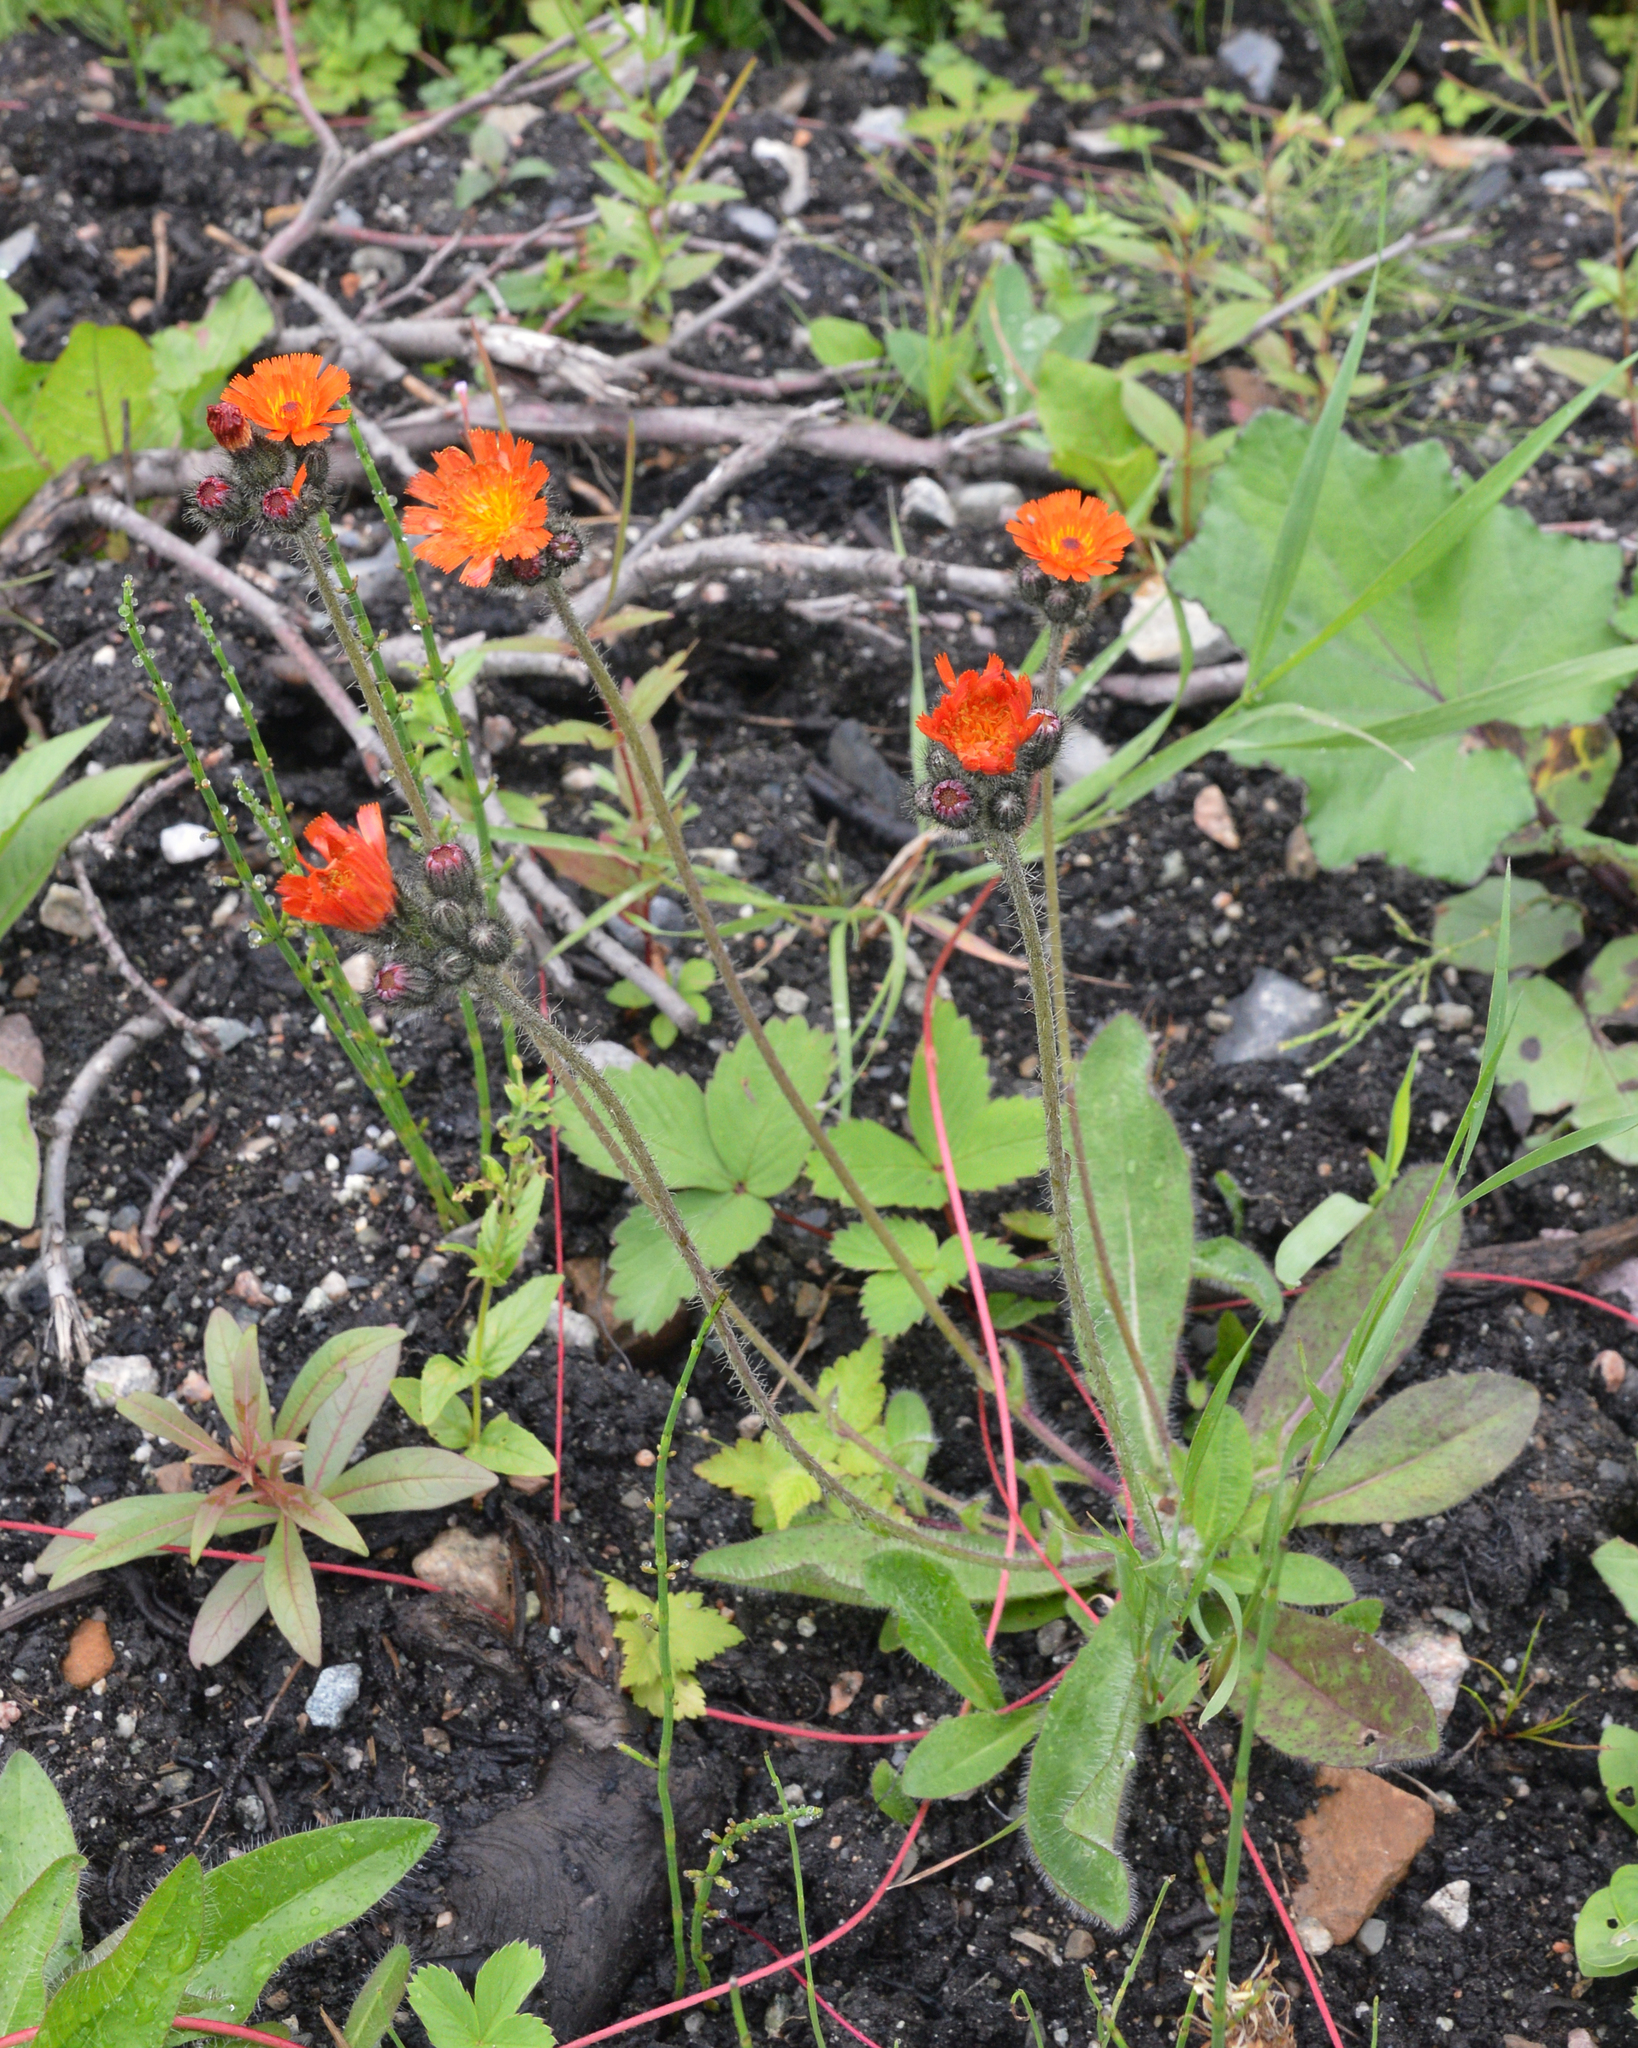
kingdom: Plantae
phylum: Tracheophyta
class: Magnoliopsida
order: Asterales
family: Asteraceae
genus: Pilosella
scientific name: Pilosella aurantiaca
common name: Fox-and-cubs
